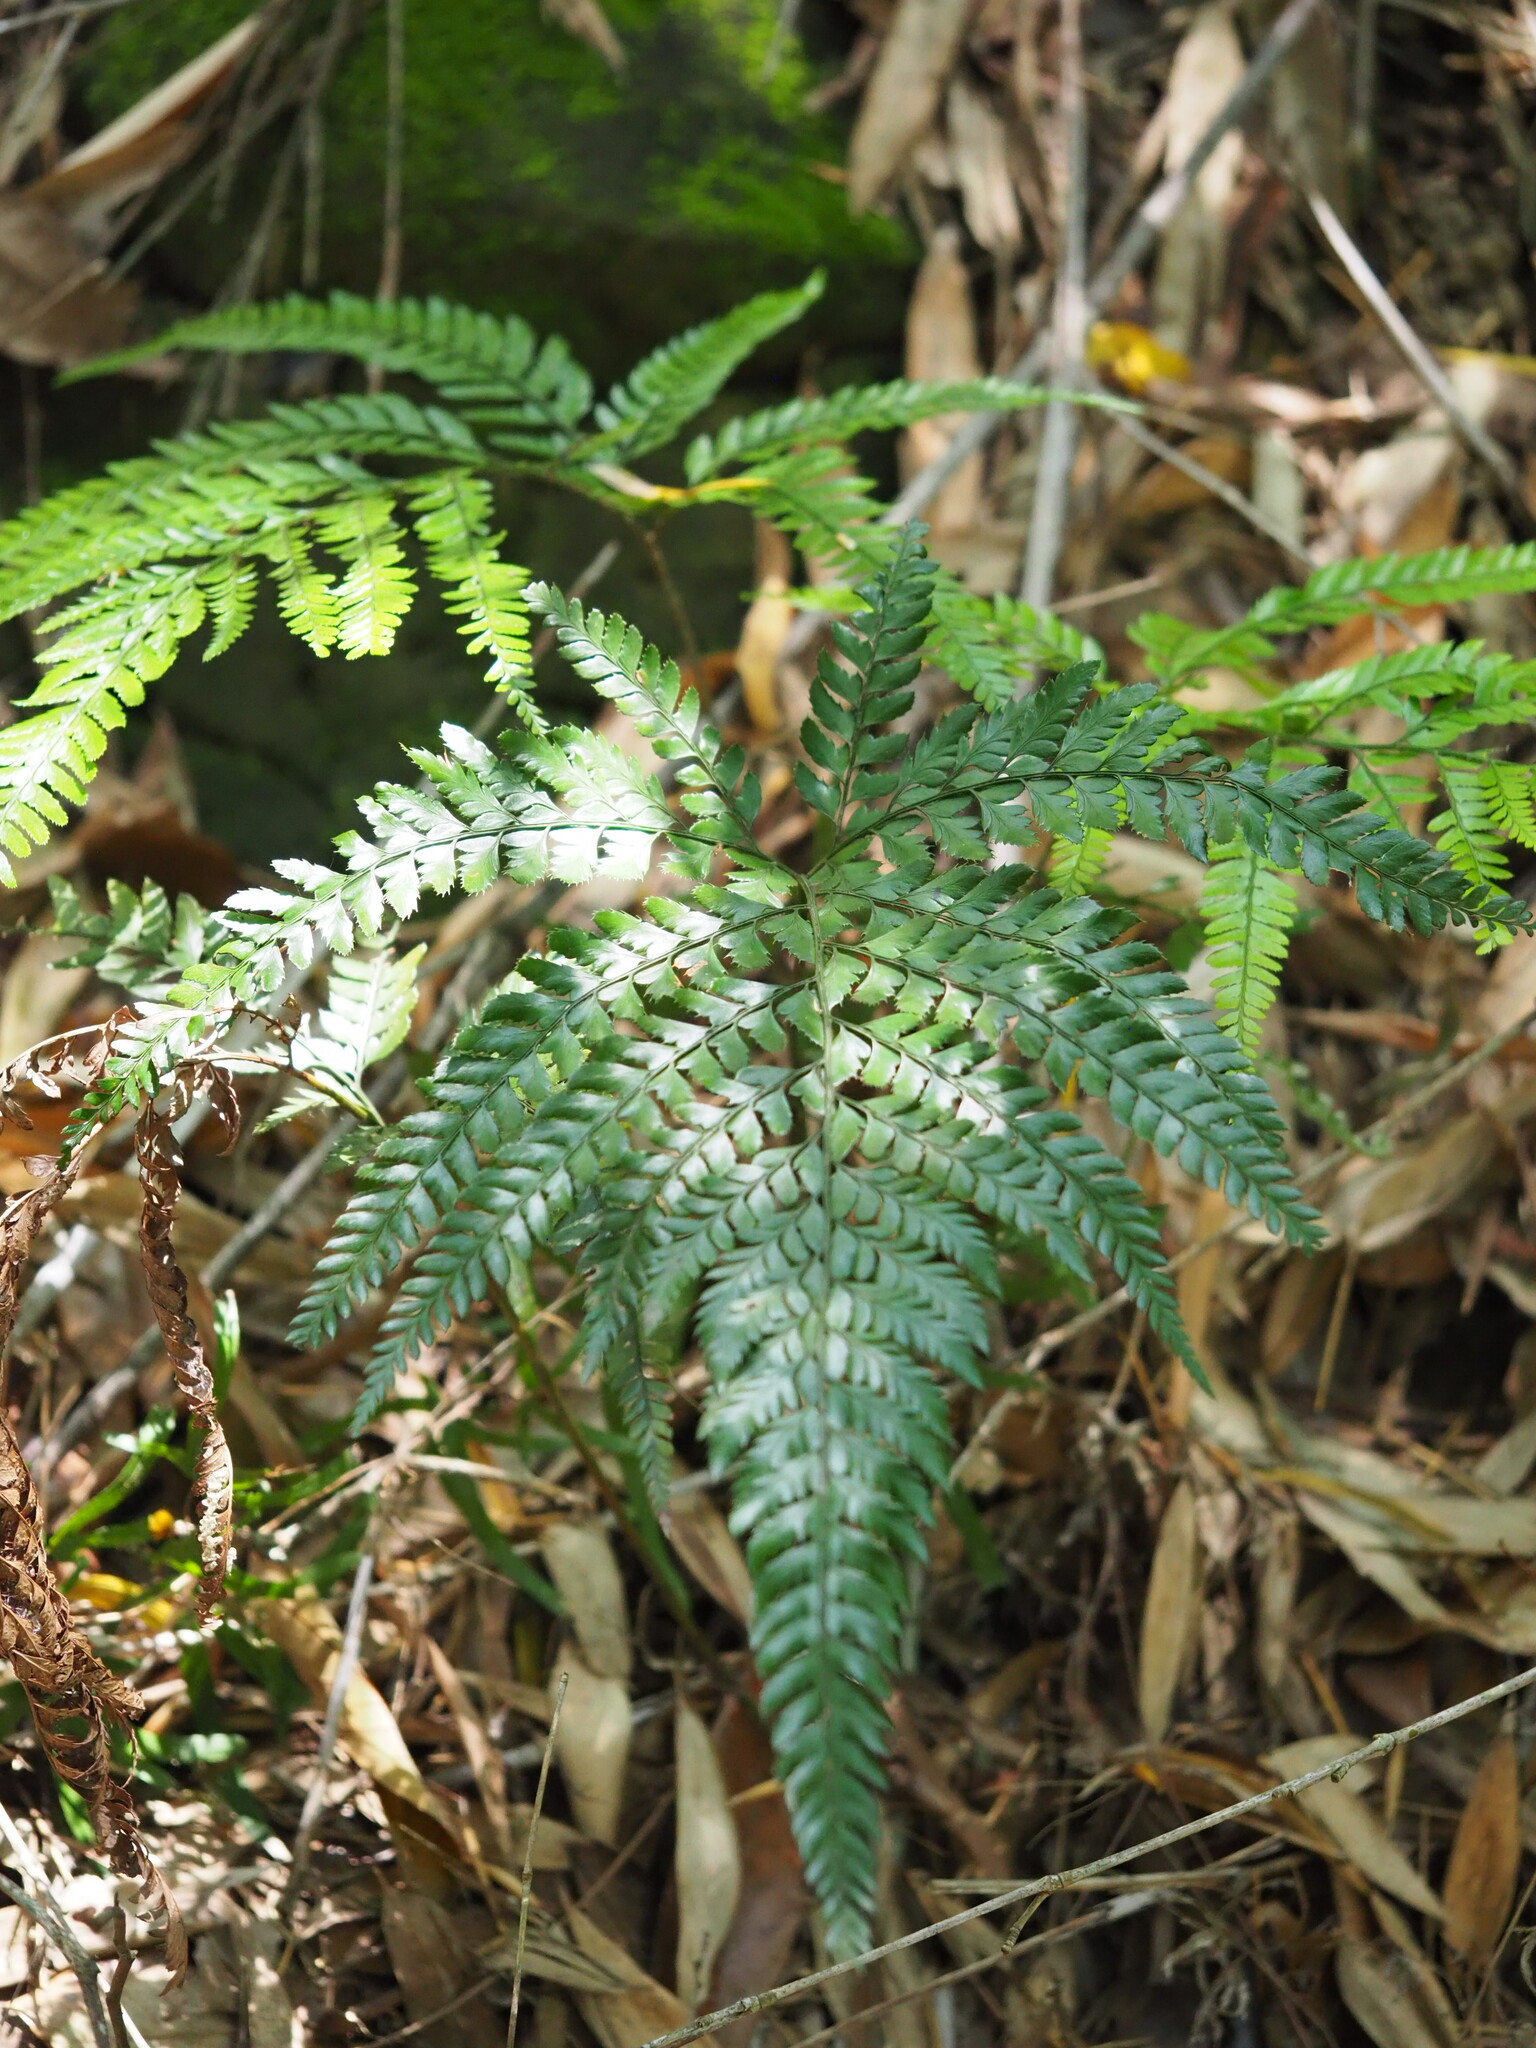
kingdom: Plantae
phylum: Tracheophyta
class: Polypodiopsida
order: Polypodiales
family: Dryopteridaceae
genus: Arachniodes
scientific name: Arachniodes aristata
